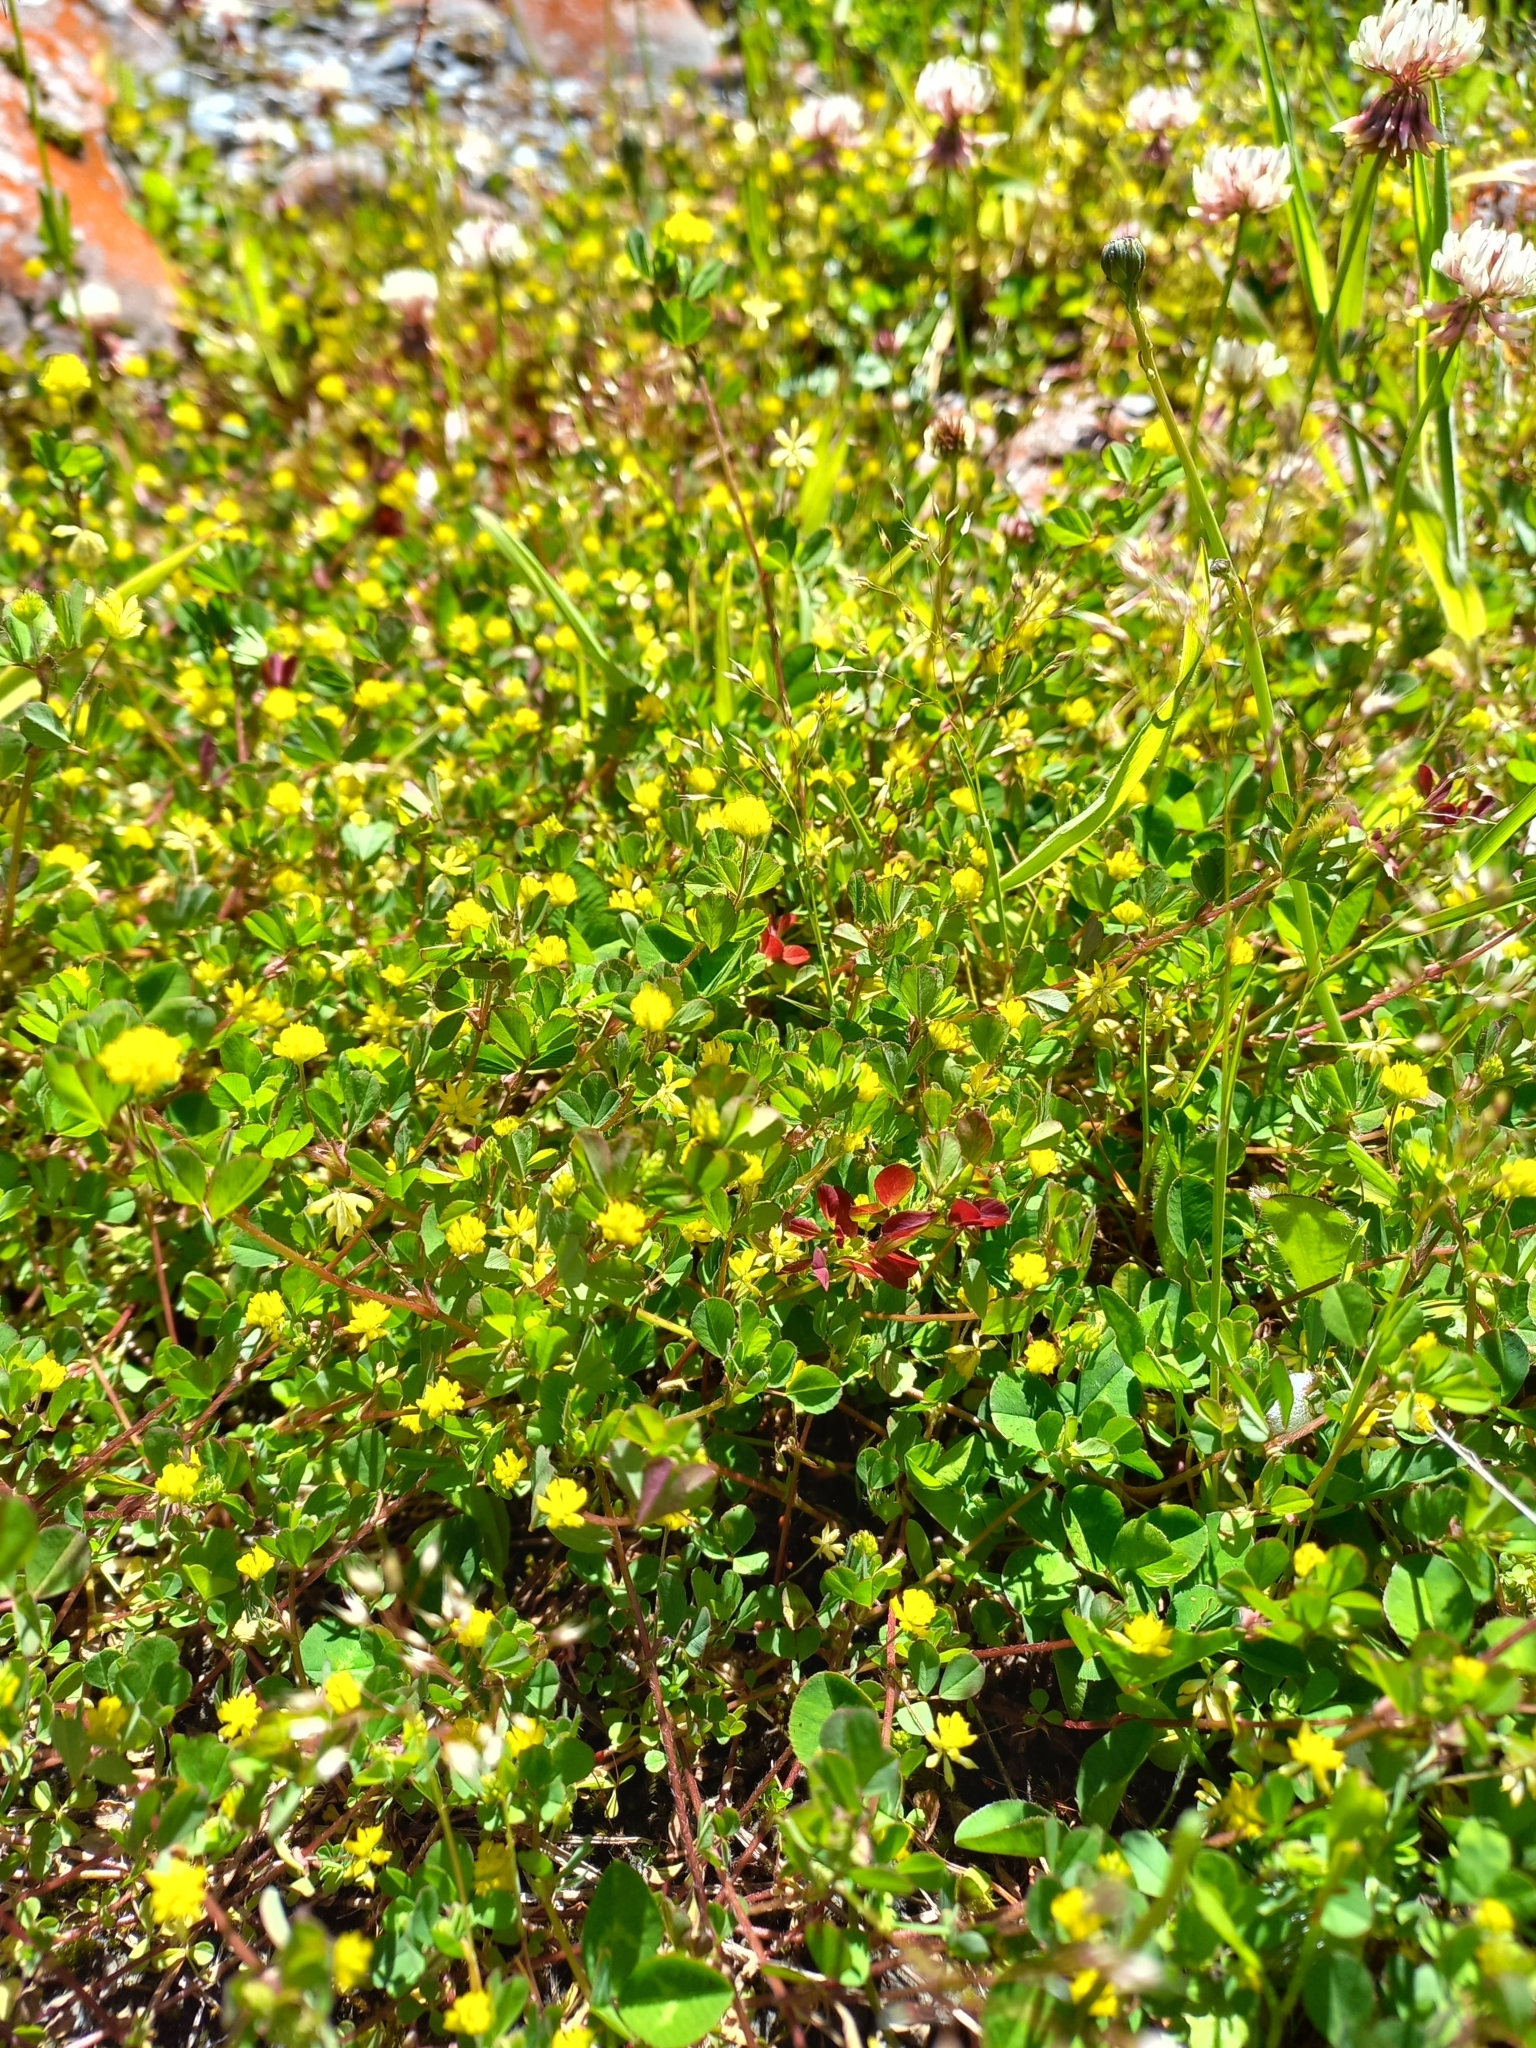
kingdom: Plantae
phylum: Tracheophyta
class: Magnoliopsida
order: Fabales
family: Fabaceae
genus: Medicago
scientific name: Medicago lupulina
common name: Black medick
